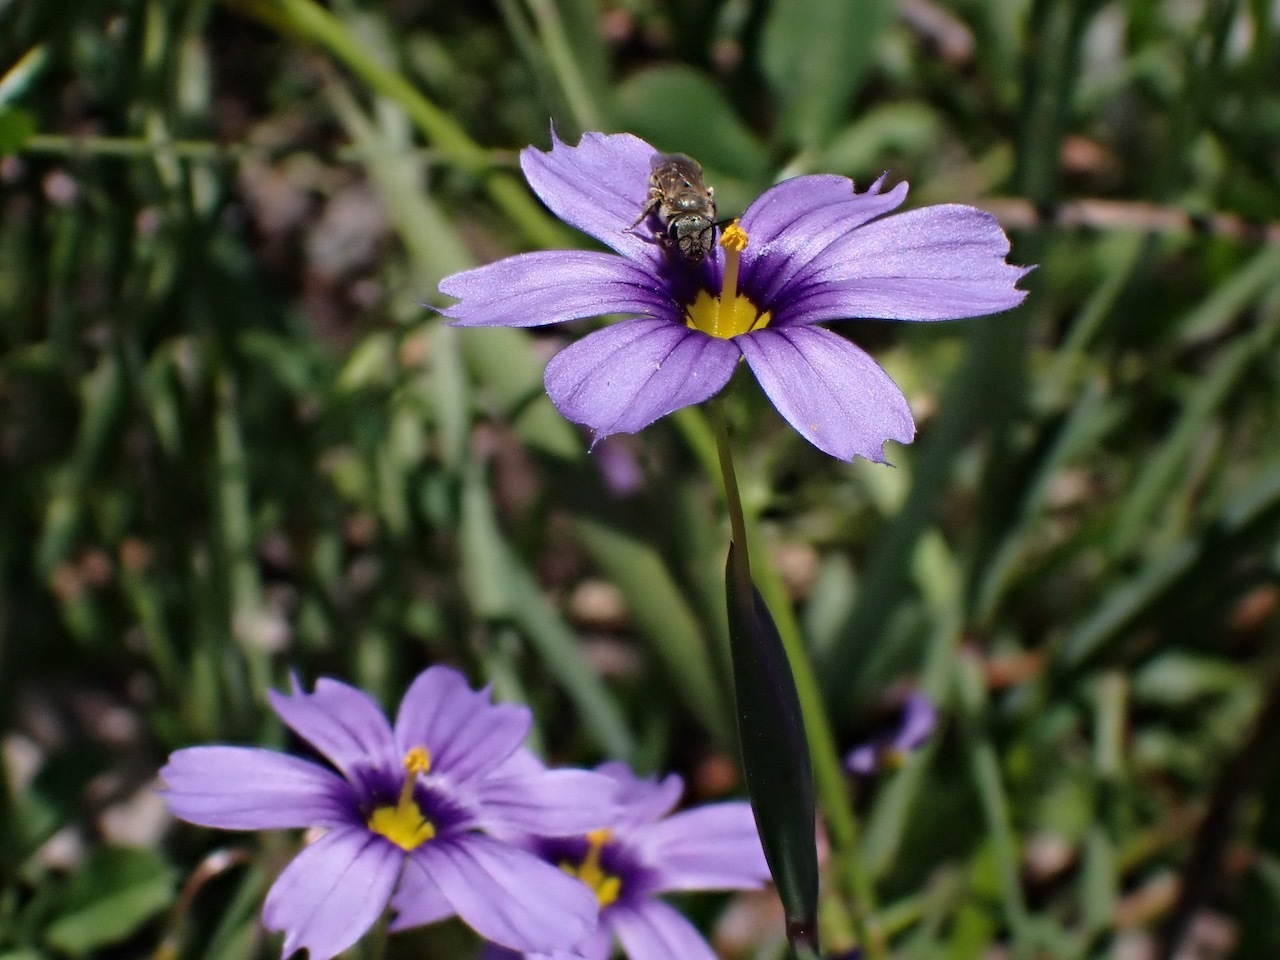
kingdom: Plantae
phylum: Tracheophyta
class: Liliopsida
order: Asparagales
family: Iridaceae
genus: Sisyrinchium
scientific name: Sisyrinchium bellum
